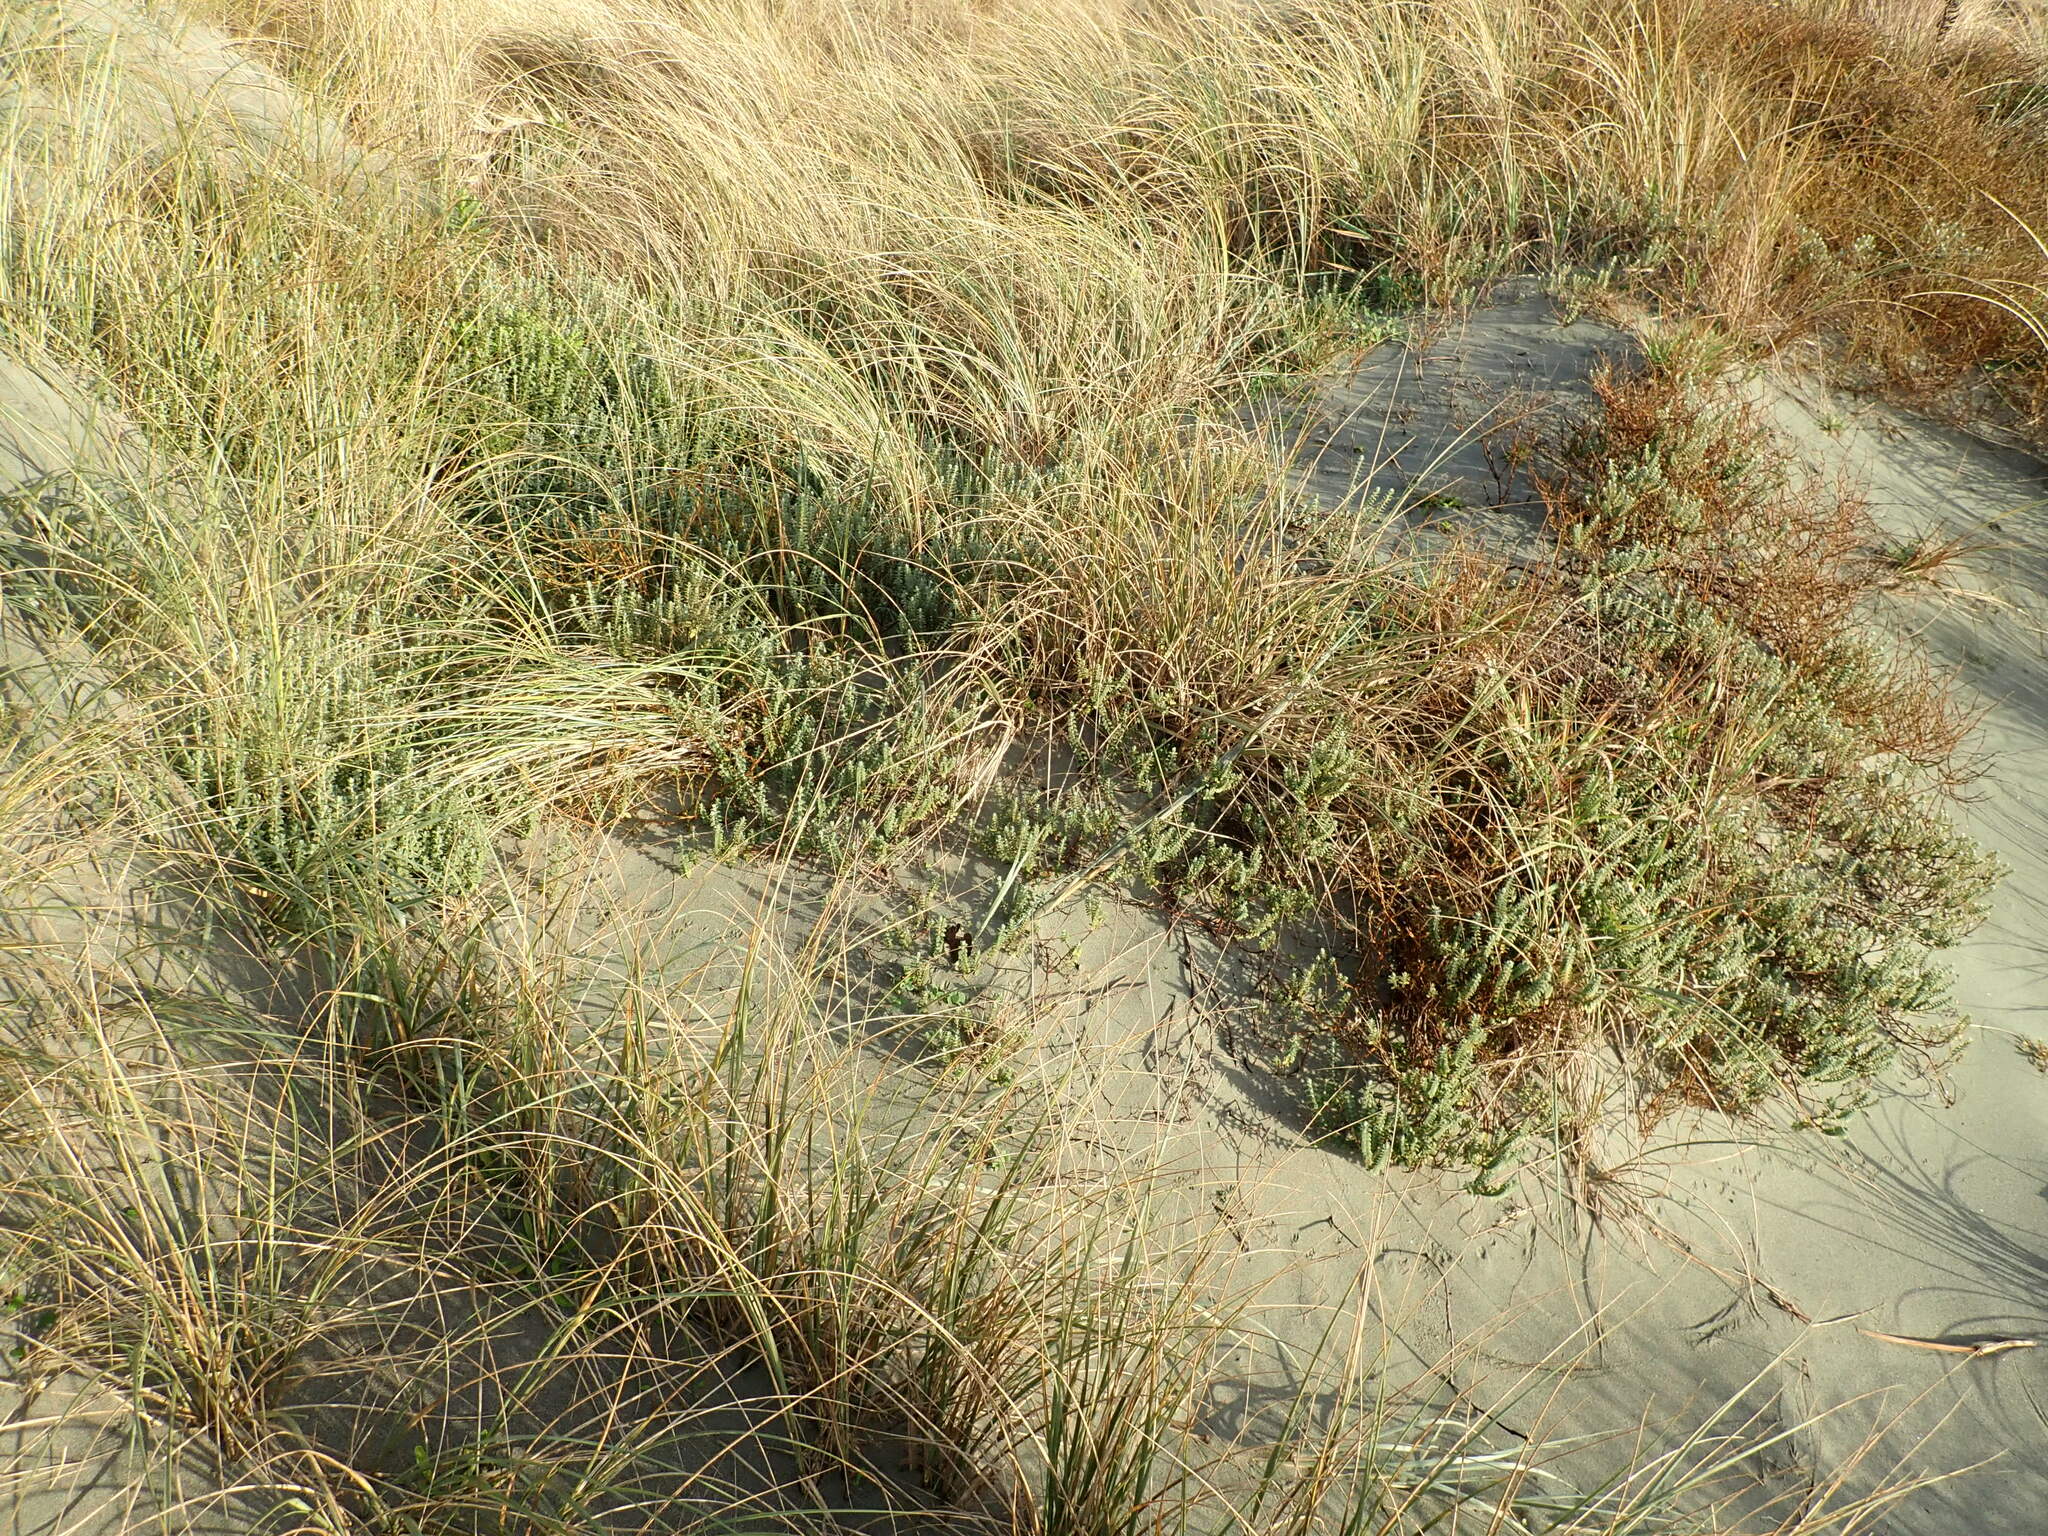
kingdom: Plantae
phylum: Tracheophyta
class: Magnoliopsida
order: Malvales
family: Thymelaeaceae
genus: Pimelea
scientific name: Pimelea villosa
